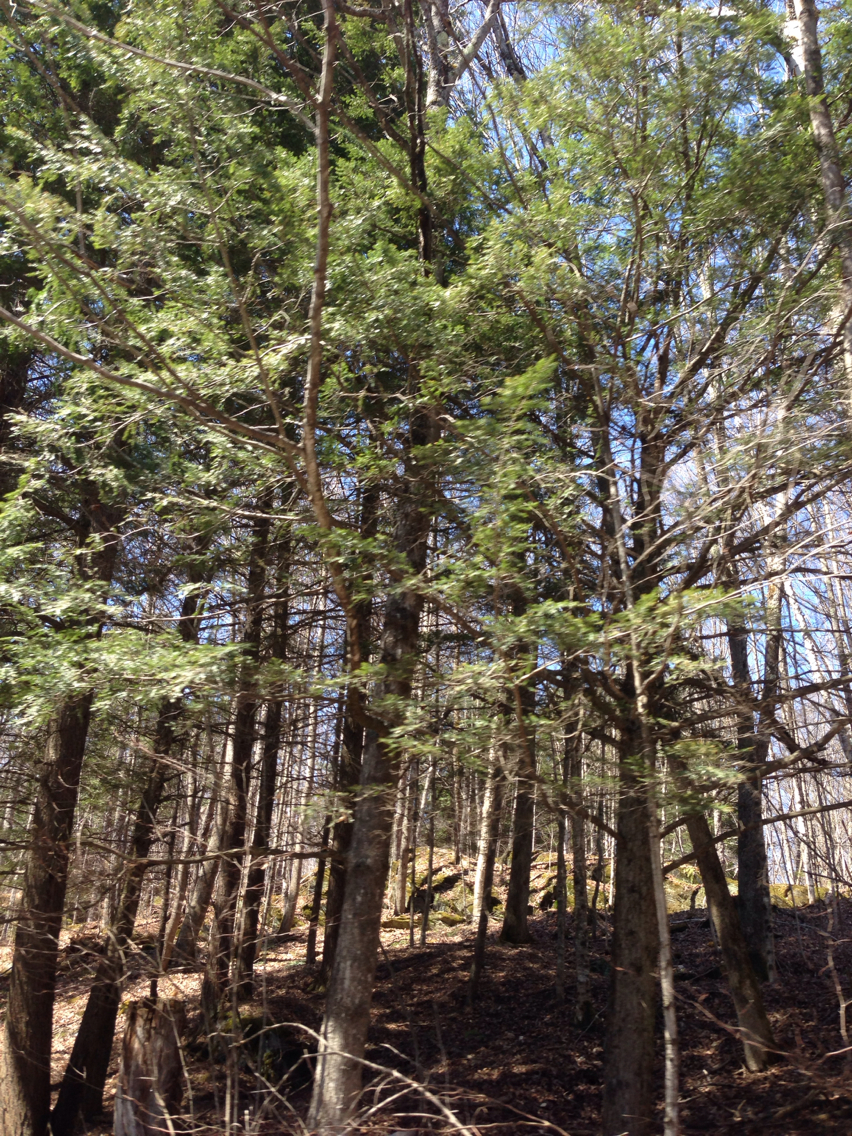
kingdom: Plantae
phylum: Tracheophyta
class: Pinopsida
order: Pinales
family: Pinaceae
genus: Tsuga
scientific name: Tsuga canadensis
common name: Eastern hemlock
